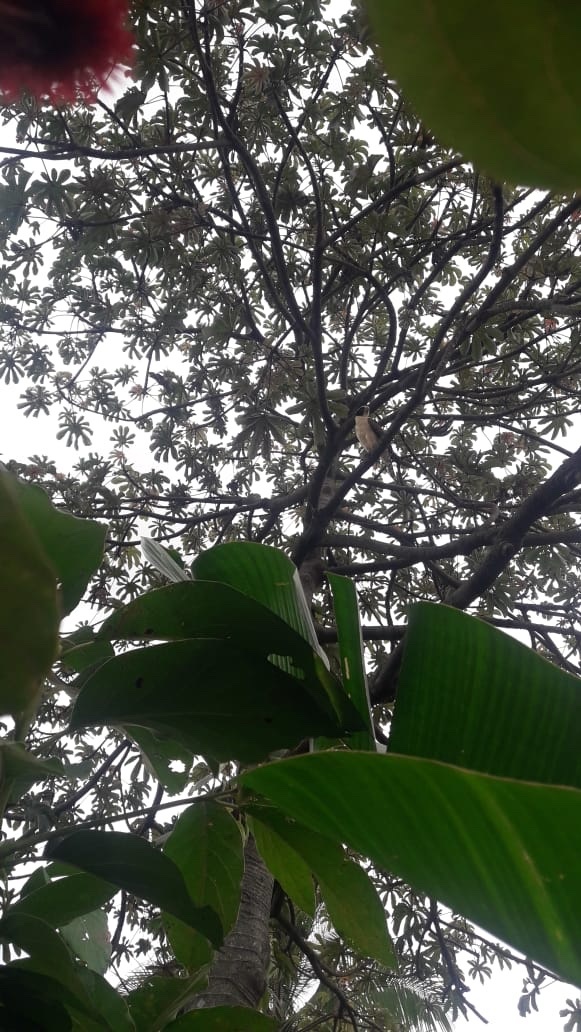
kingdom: Animalia
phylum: Chordata
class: Aves
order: Falconiformes
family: Falconidae
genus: Herpetotheres
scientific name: Herpetotheres cachinnans
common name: Laughing falcon
